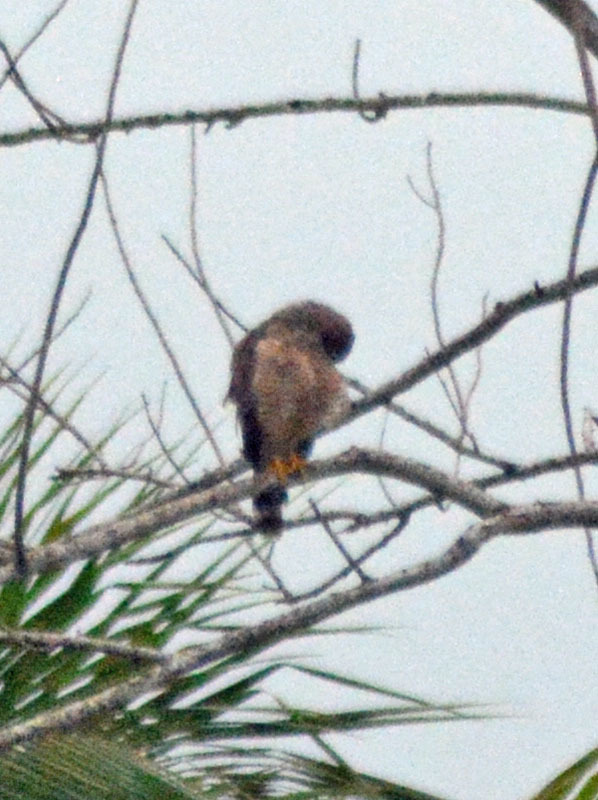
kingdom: Animalia
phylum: Chordata
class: Aves
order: Accipitriformes
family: Accipitridae
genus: Rupornis
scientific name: Rupornis magnirostris
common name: Roadside hawk
